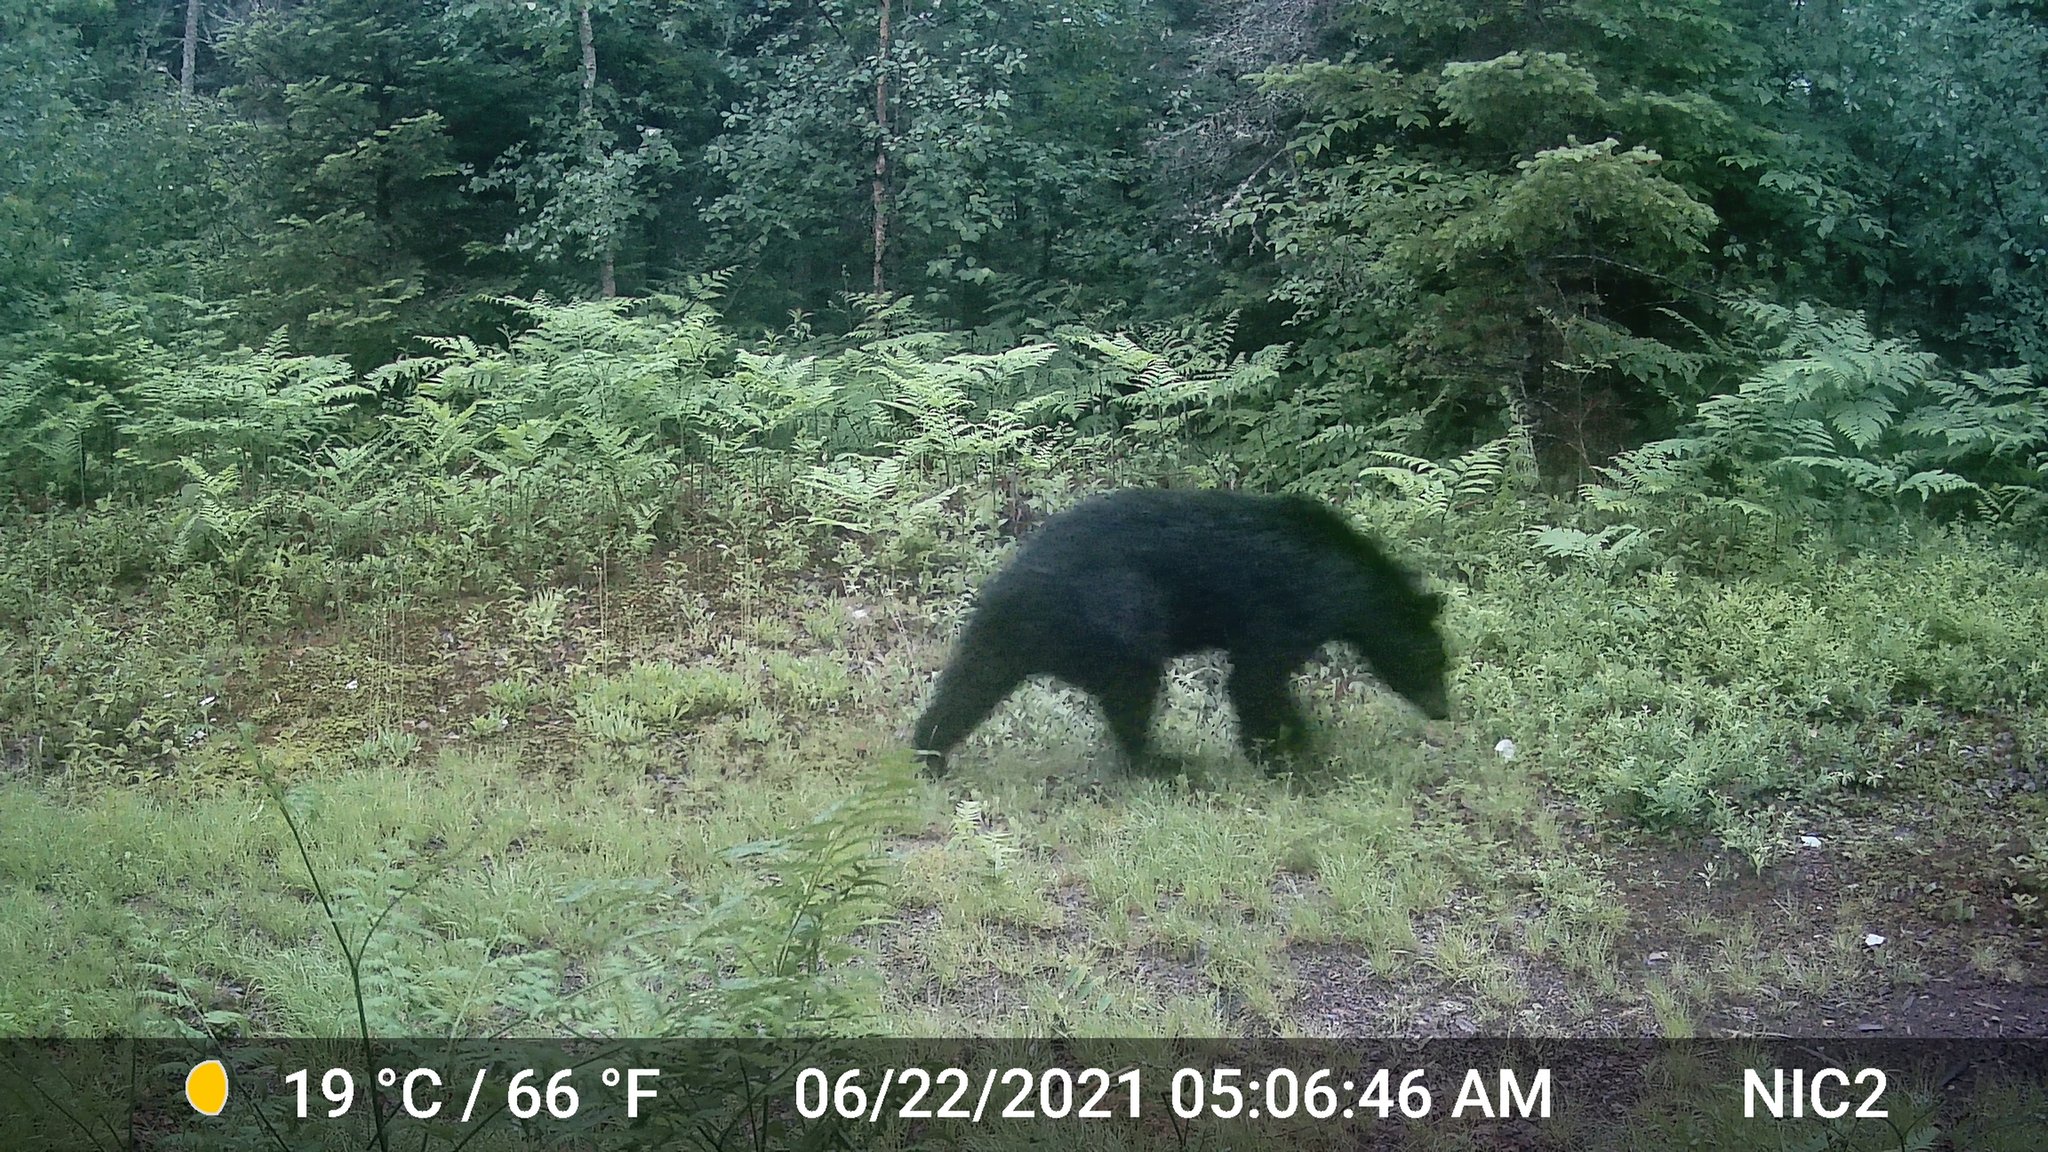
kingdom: Animalia
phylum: Chordata
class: Mammalia
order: Carnivora
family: Ursidae
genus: Ursus
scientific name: Ursus americanus
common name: American black bear
